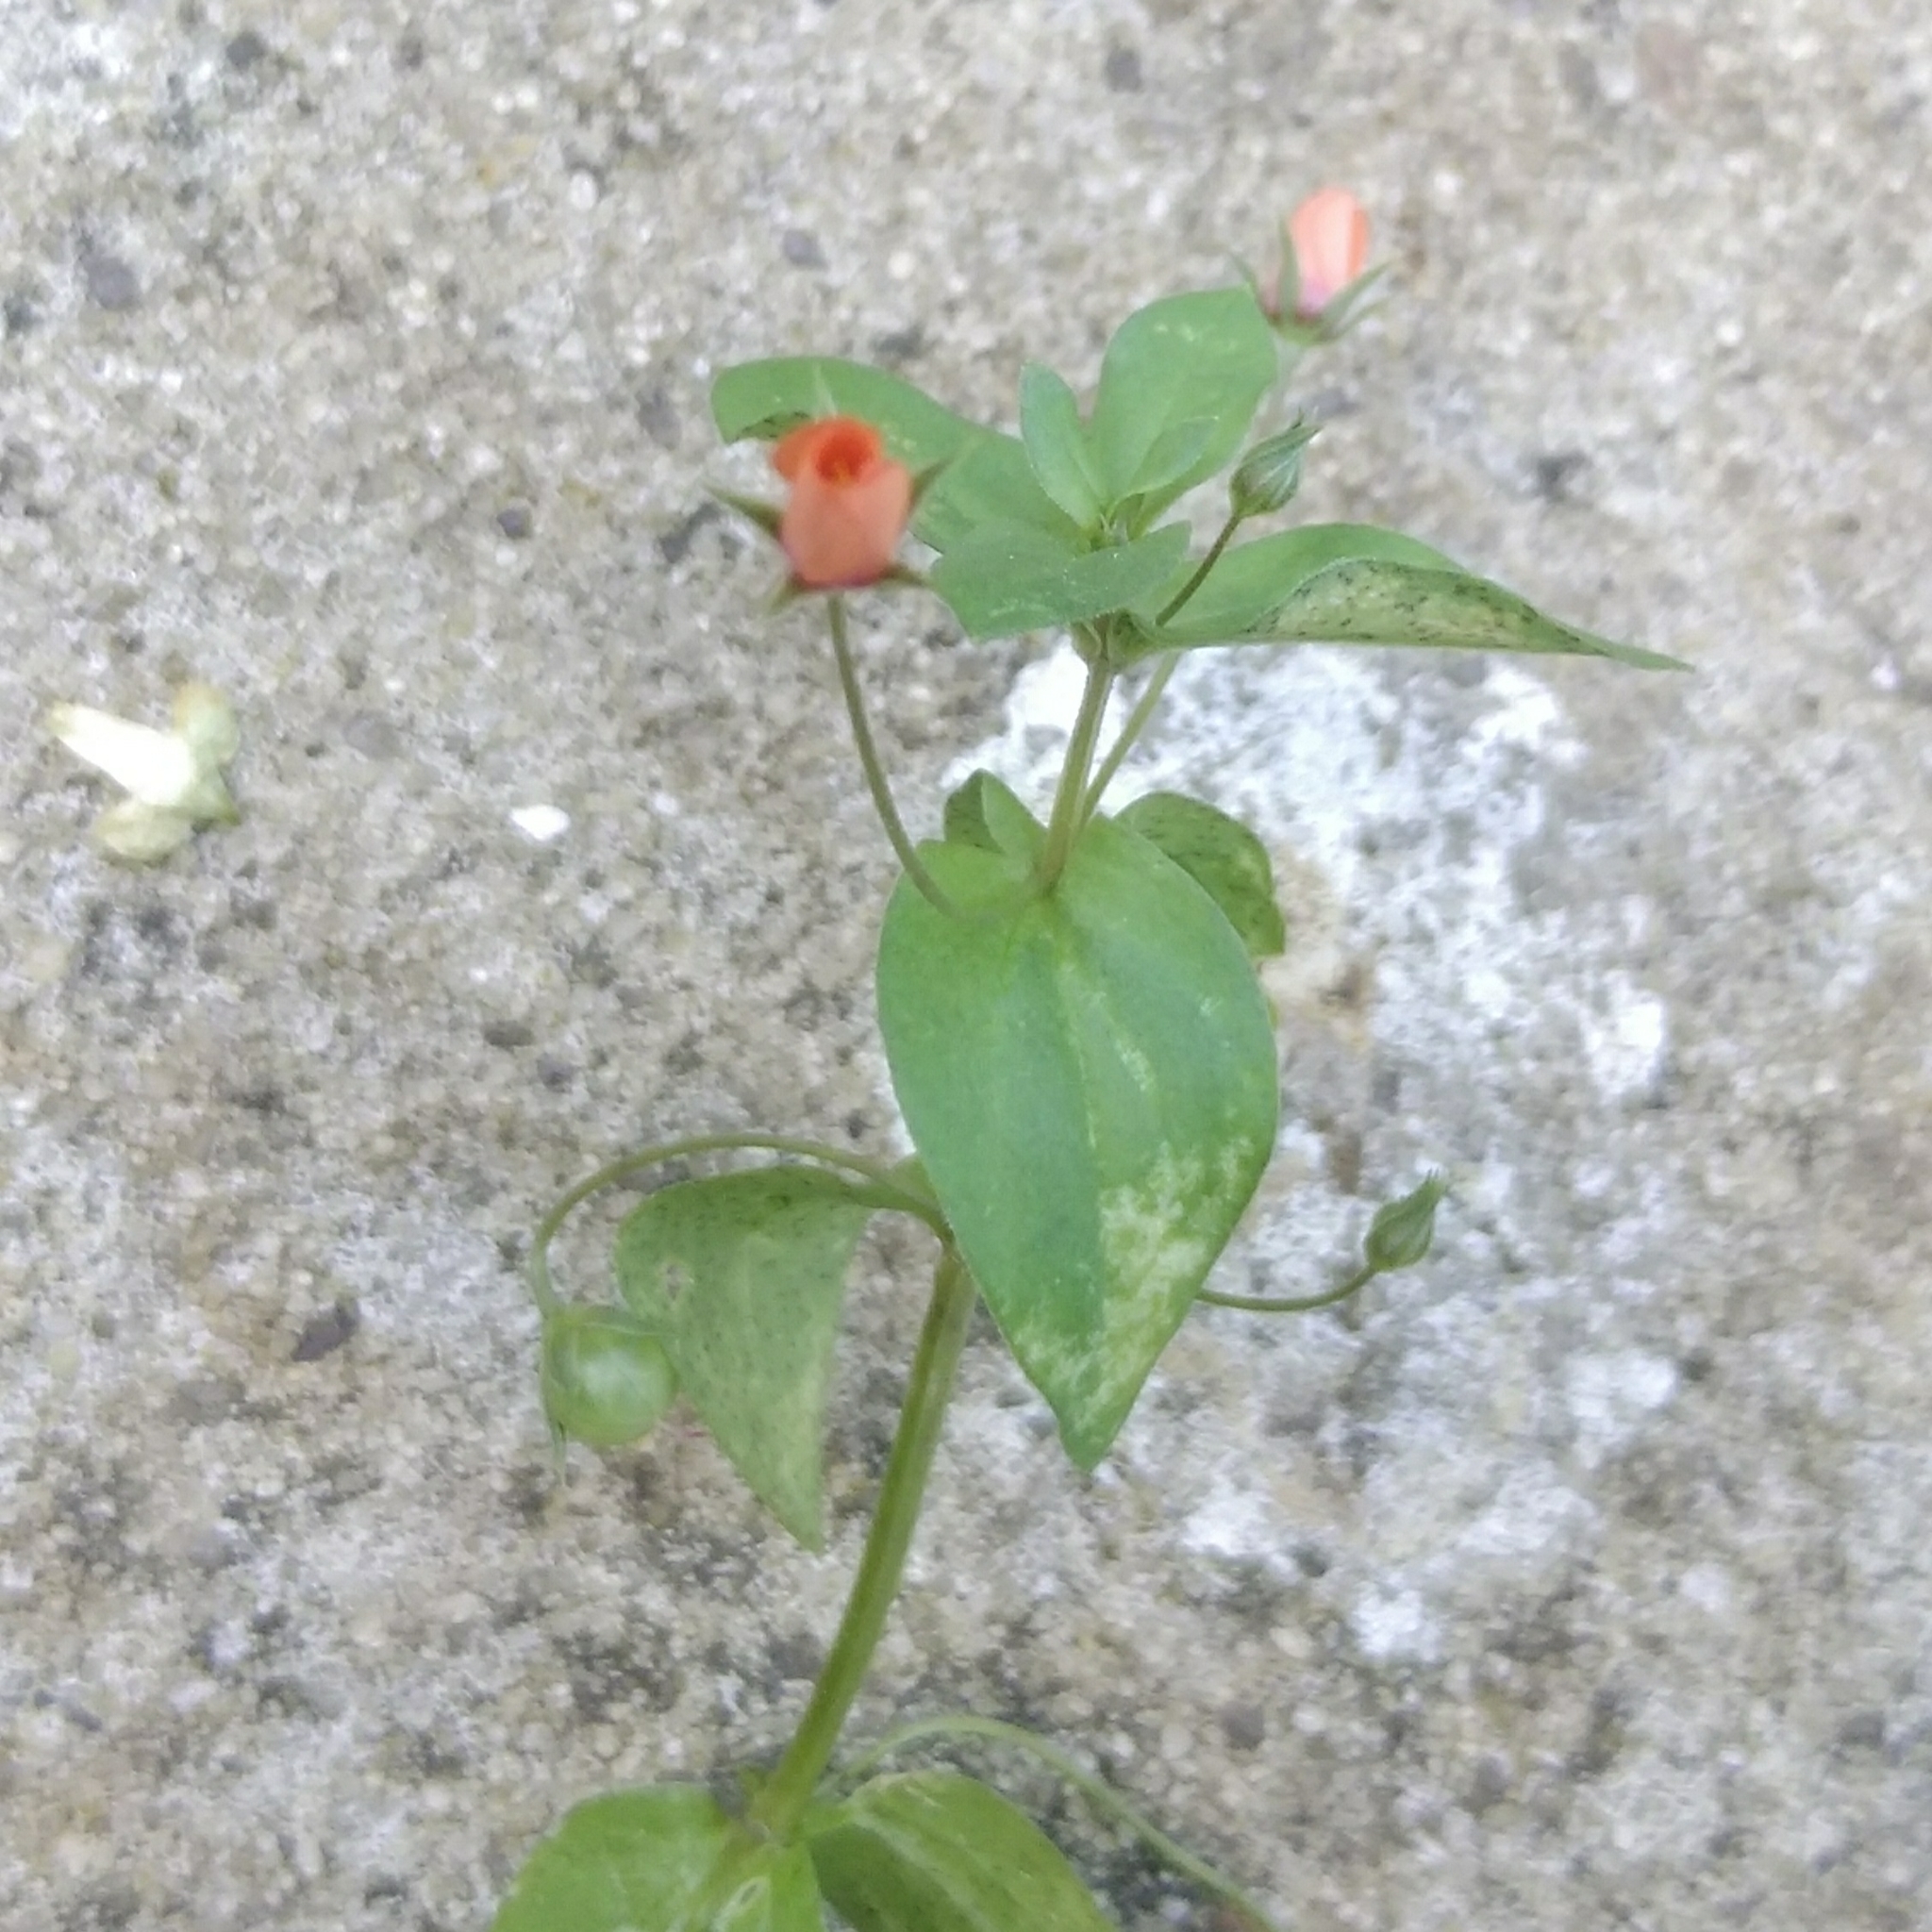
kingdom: Plantae
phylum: Tracheophyta
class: Magnoliopsida
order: Ericales
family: Primulaceae
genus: Lysimachia
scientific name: Lysimachia arvensis
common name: Scarlet pimpernel
